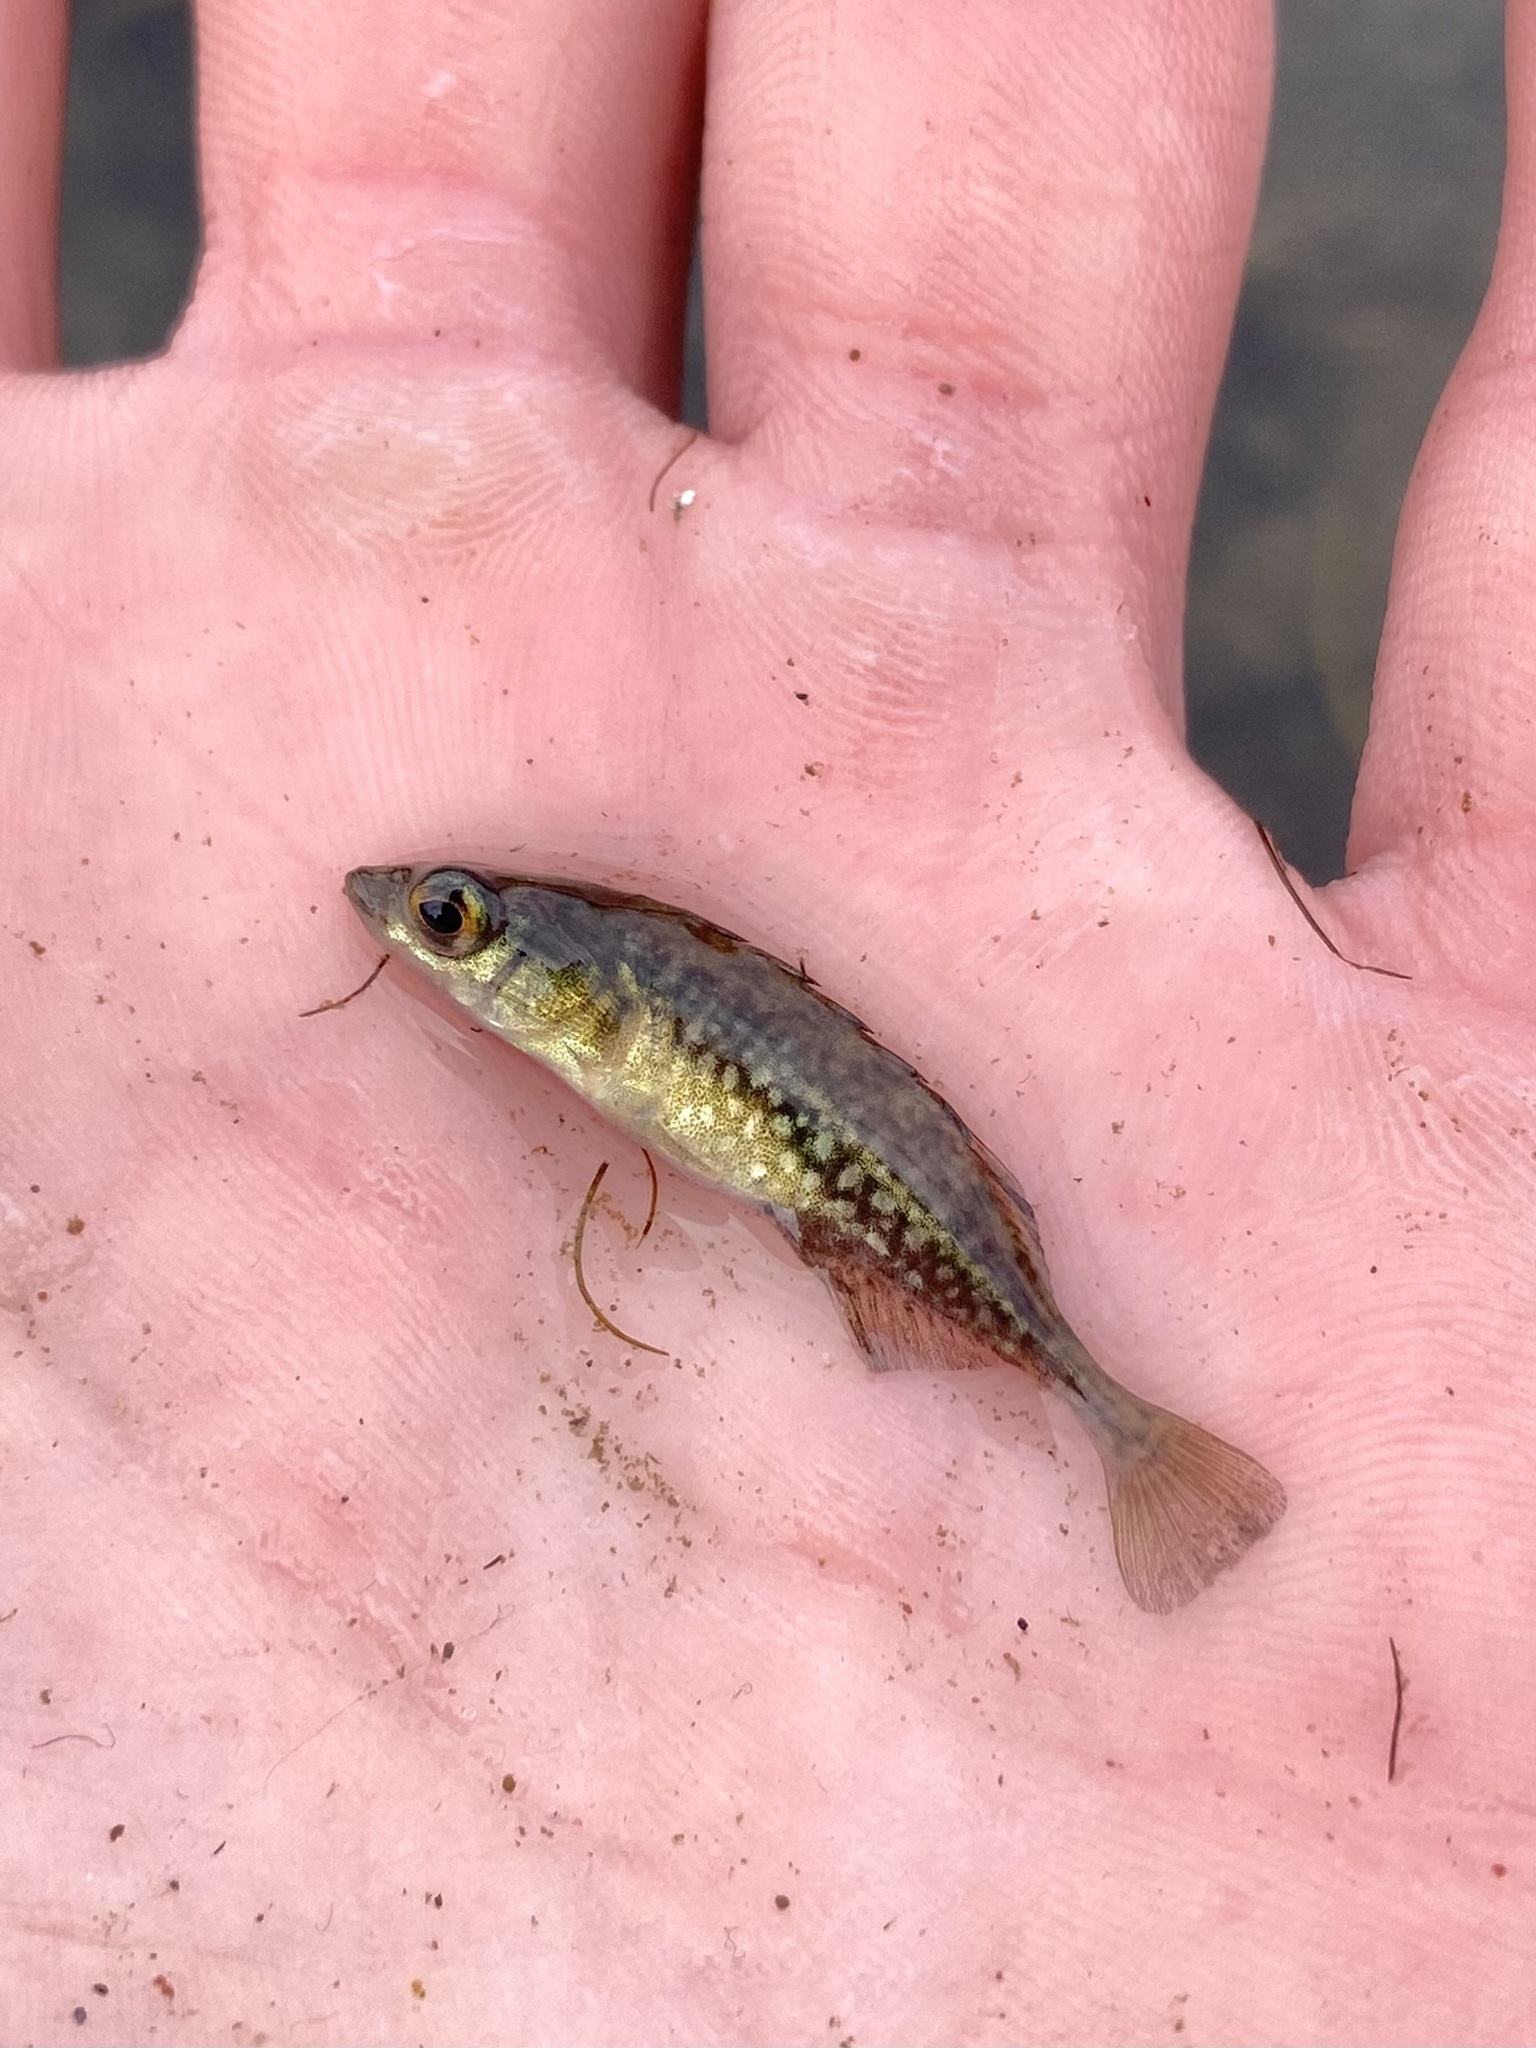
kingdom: Animalia
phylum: Chordata
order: Gasterosteiformes
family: Gasterosteidae
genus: Culaea
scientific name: Culaea inconstans
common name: Brook stickleback
